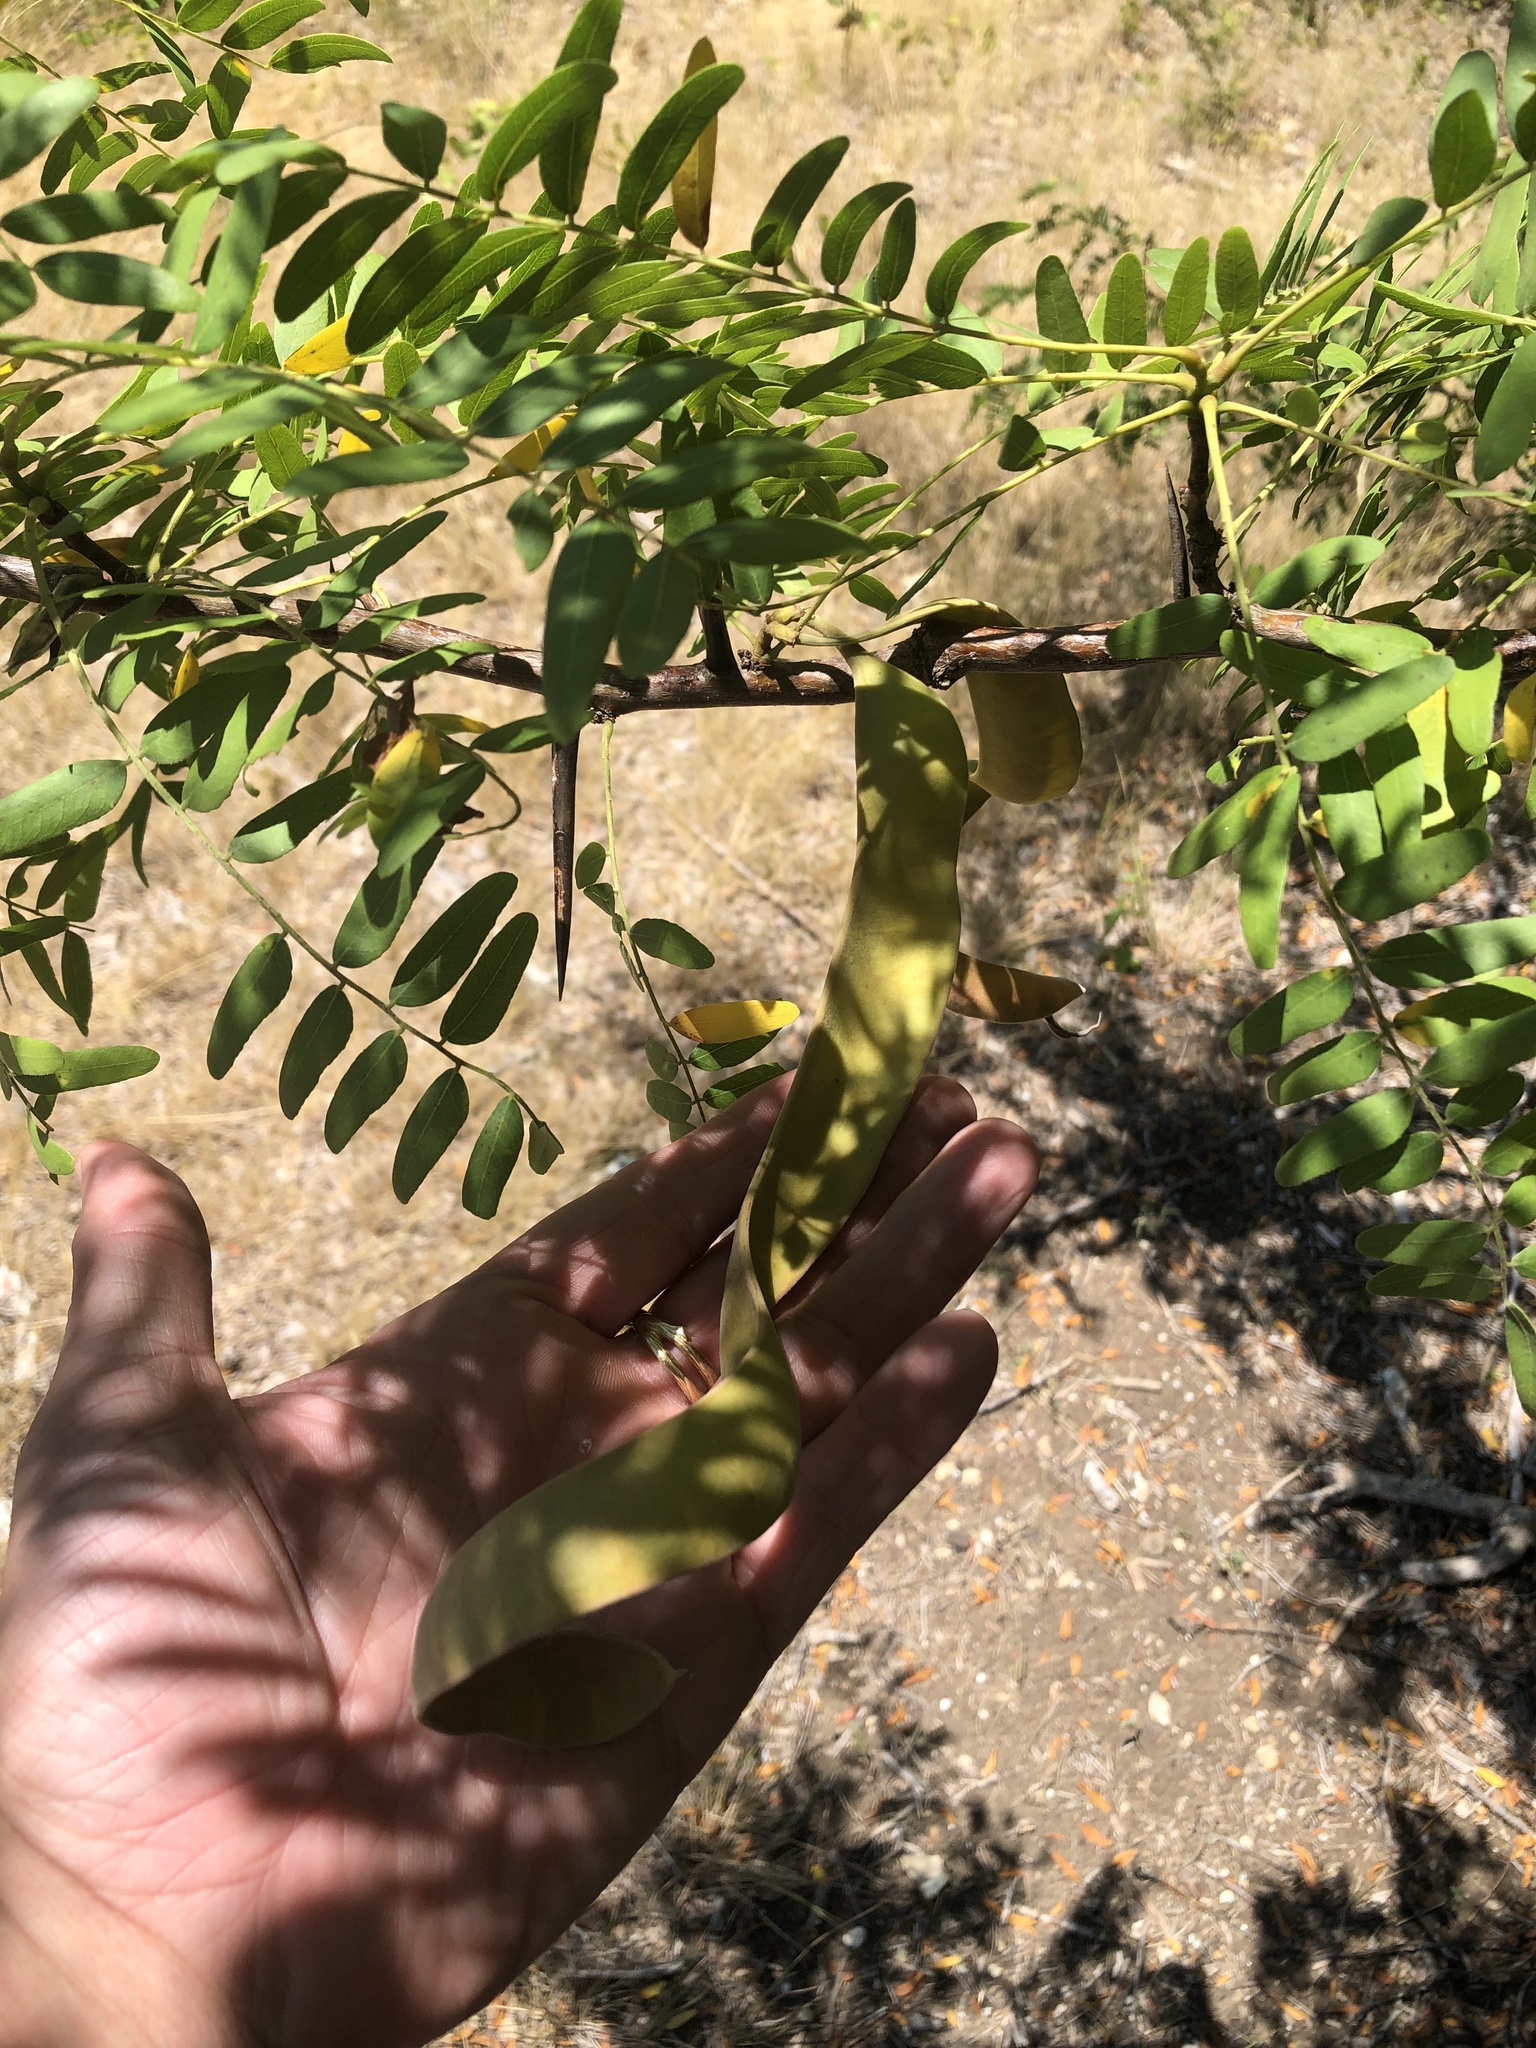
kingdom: Plantae
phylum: Tracheophyta
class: Magnoliopsida
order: Fabales
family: Fabaceae
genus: Gleditsia
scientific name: Gleditsia triacanthos
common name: Common honeylocust
